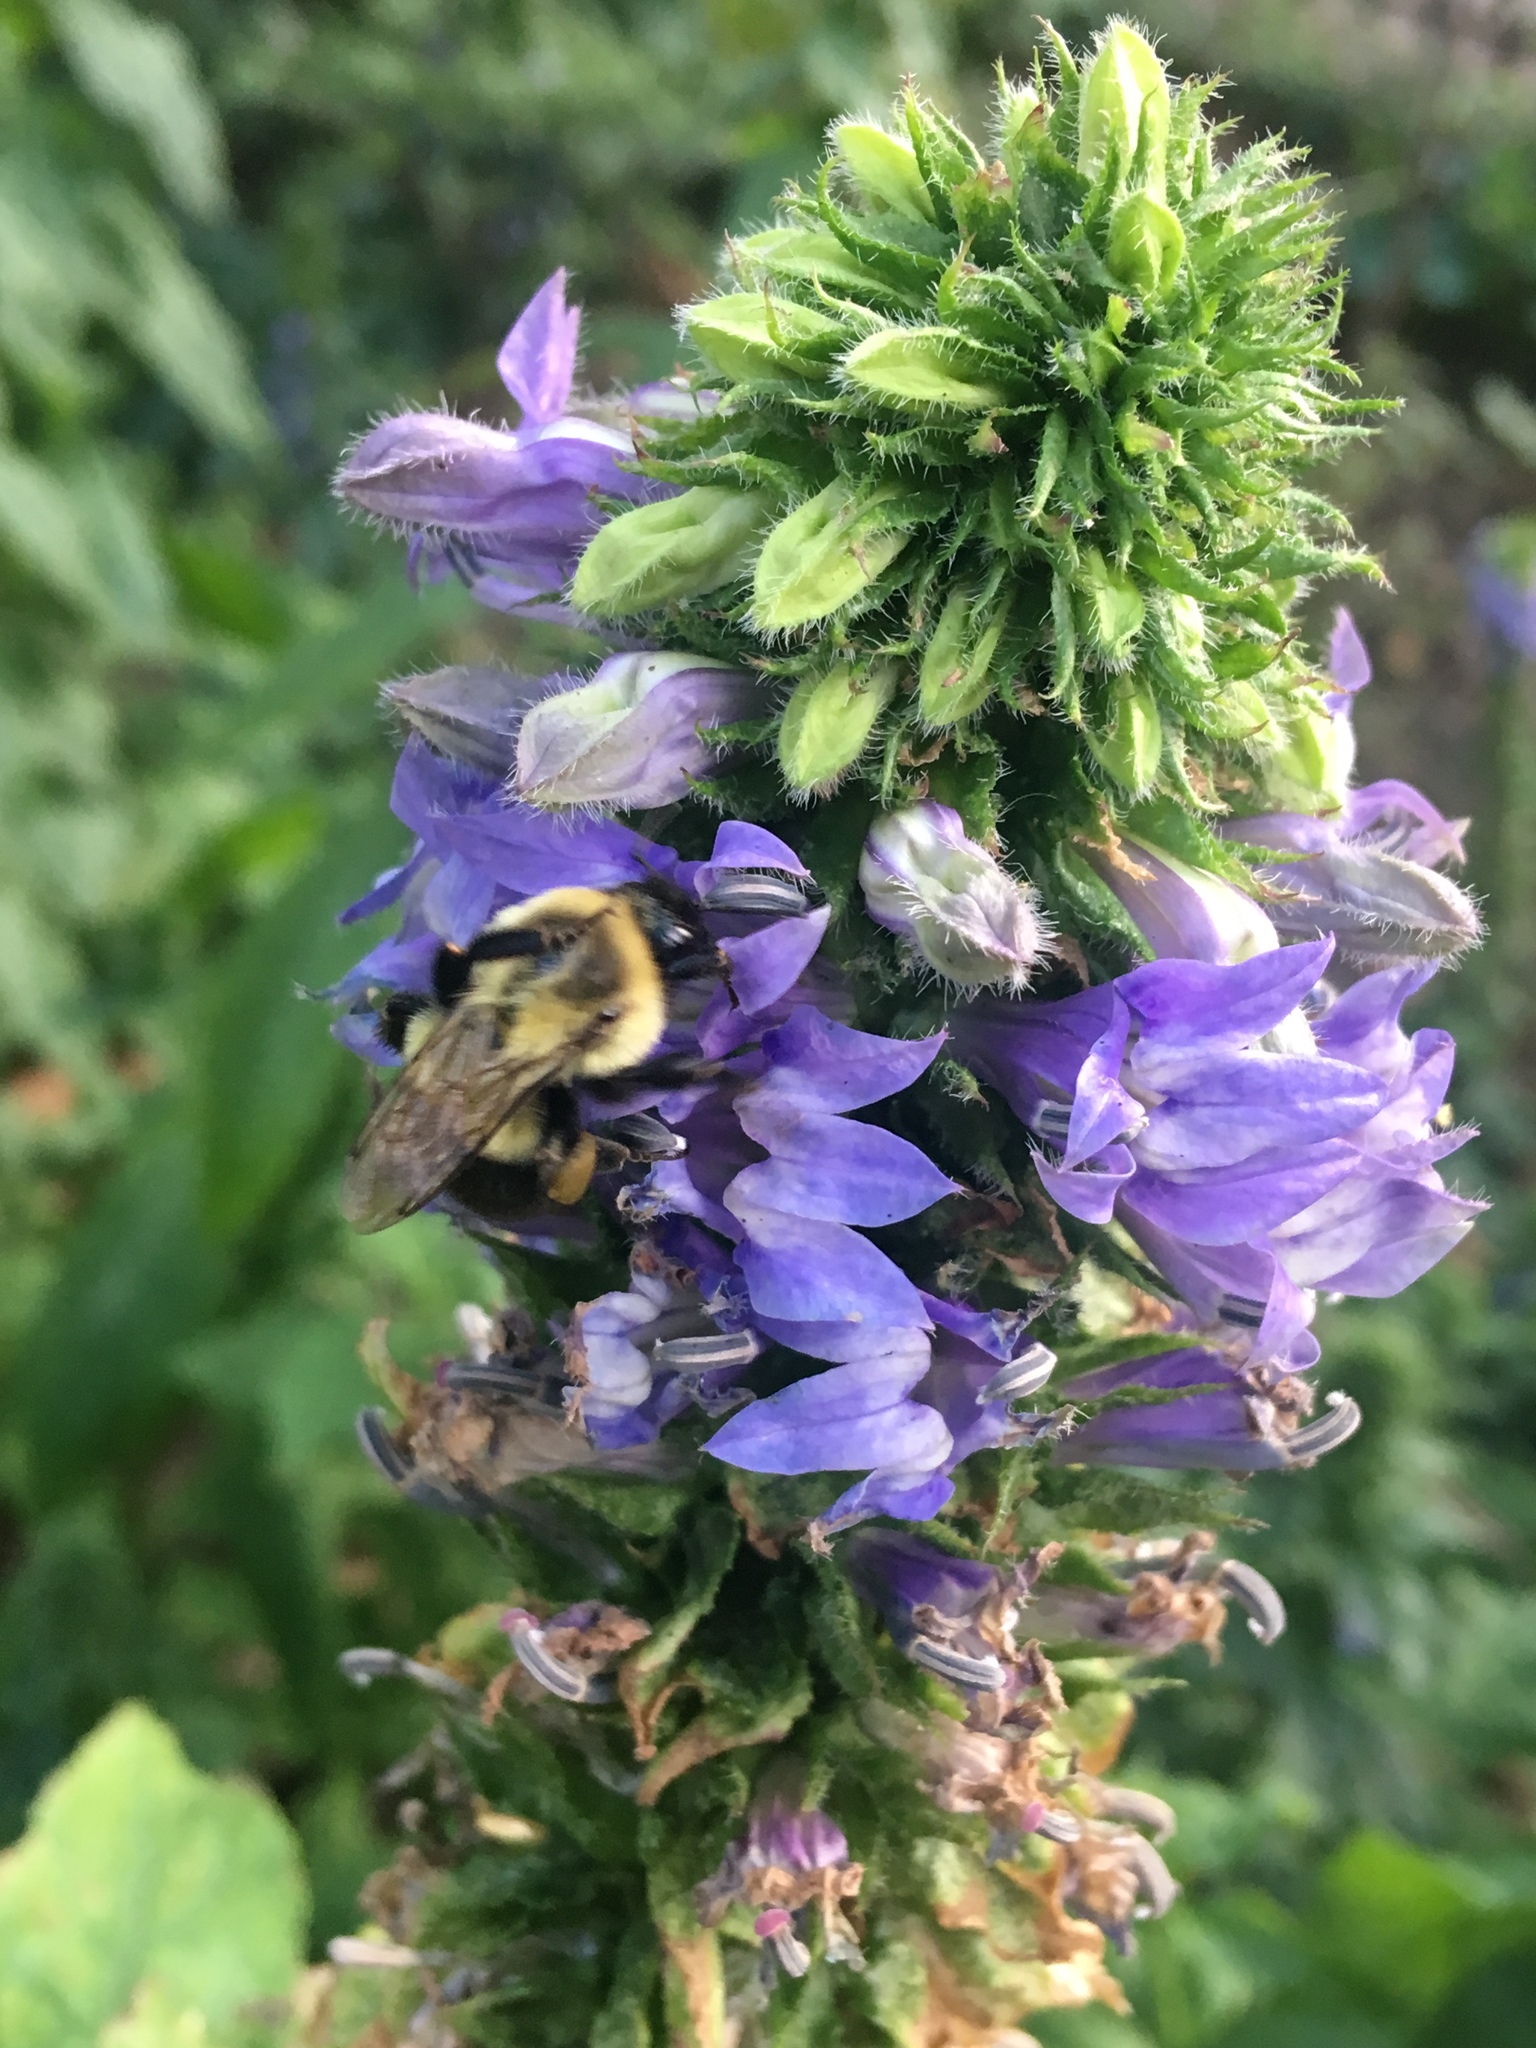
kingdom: Animalia
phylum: Arthropoda
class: Insecta
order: Hymenoptera
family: Apidae
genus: Bombus
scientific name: Bombus impatiens
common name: Common eastern bumble bee
